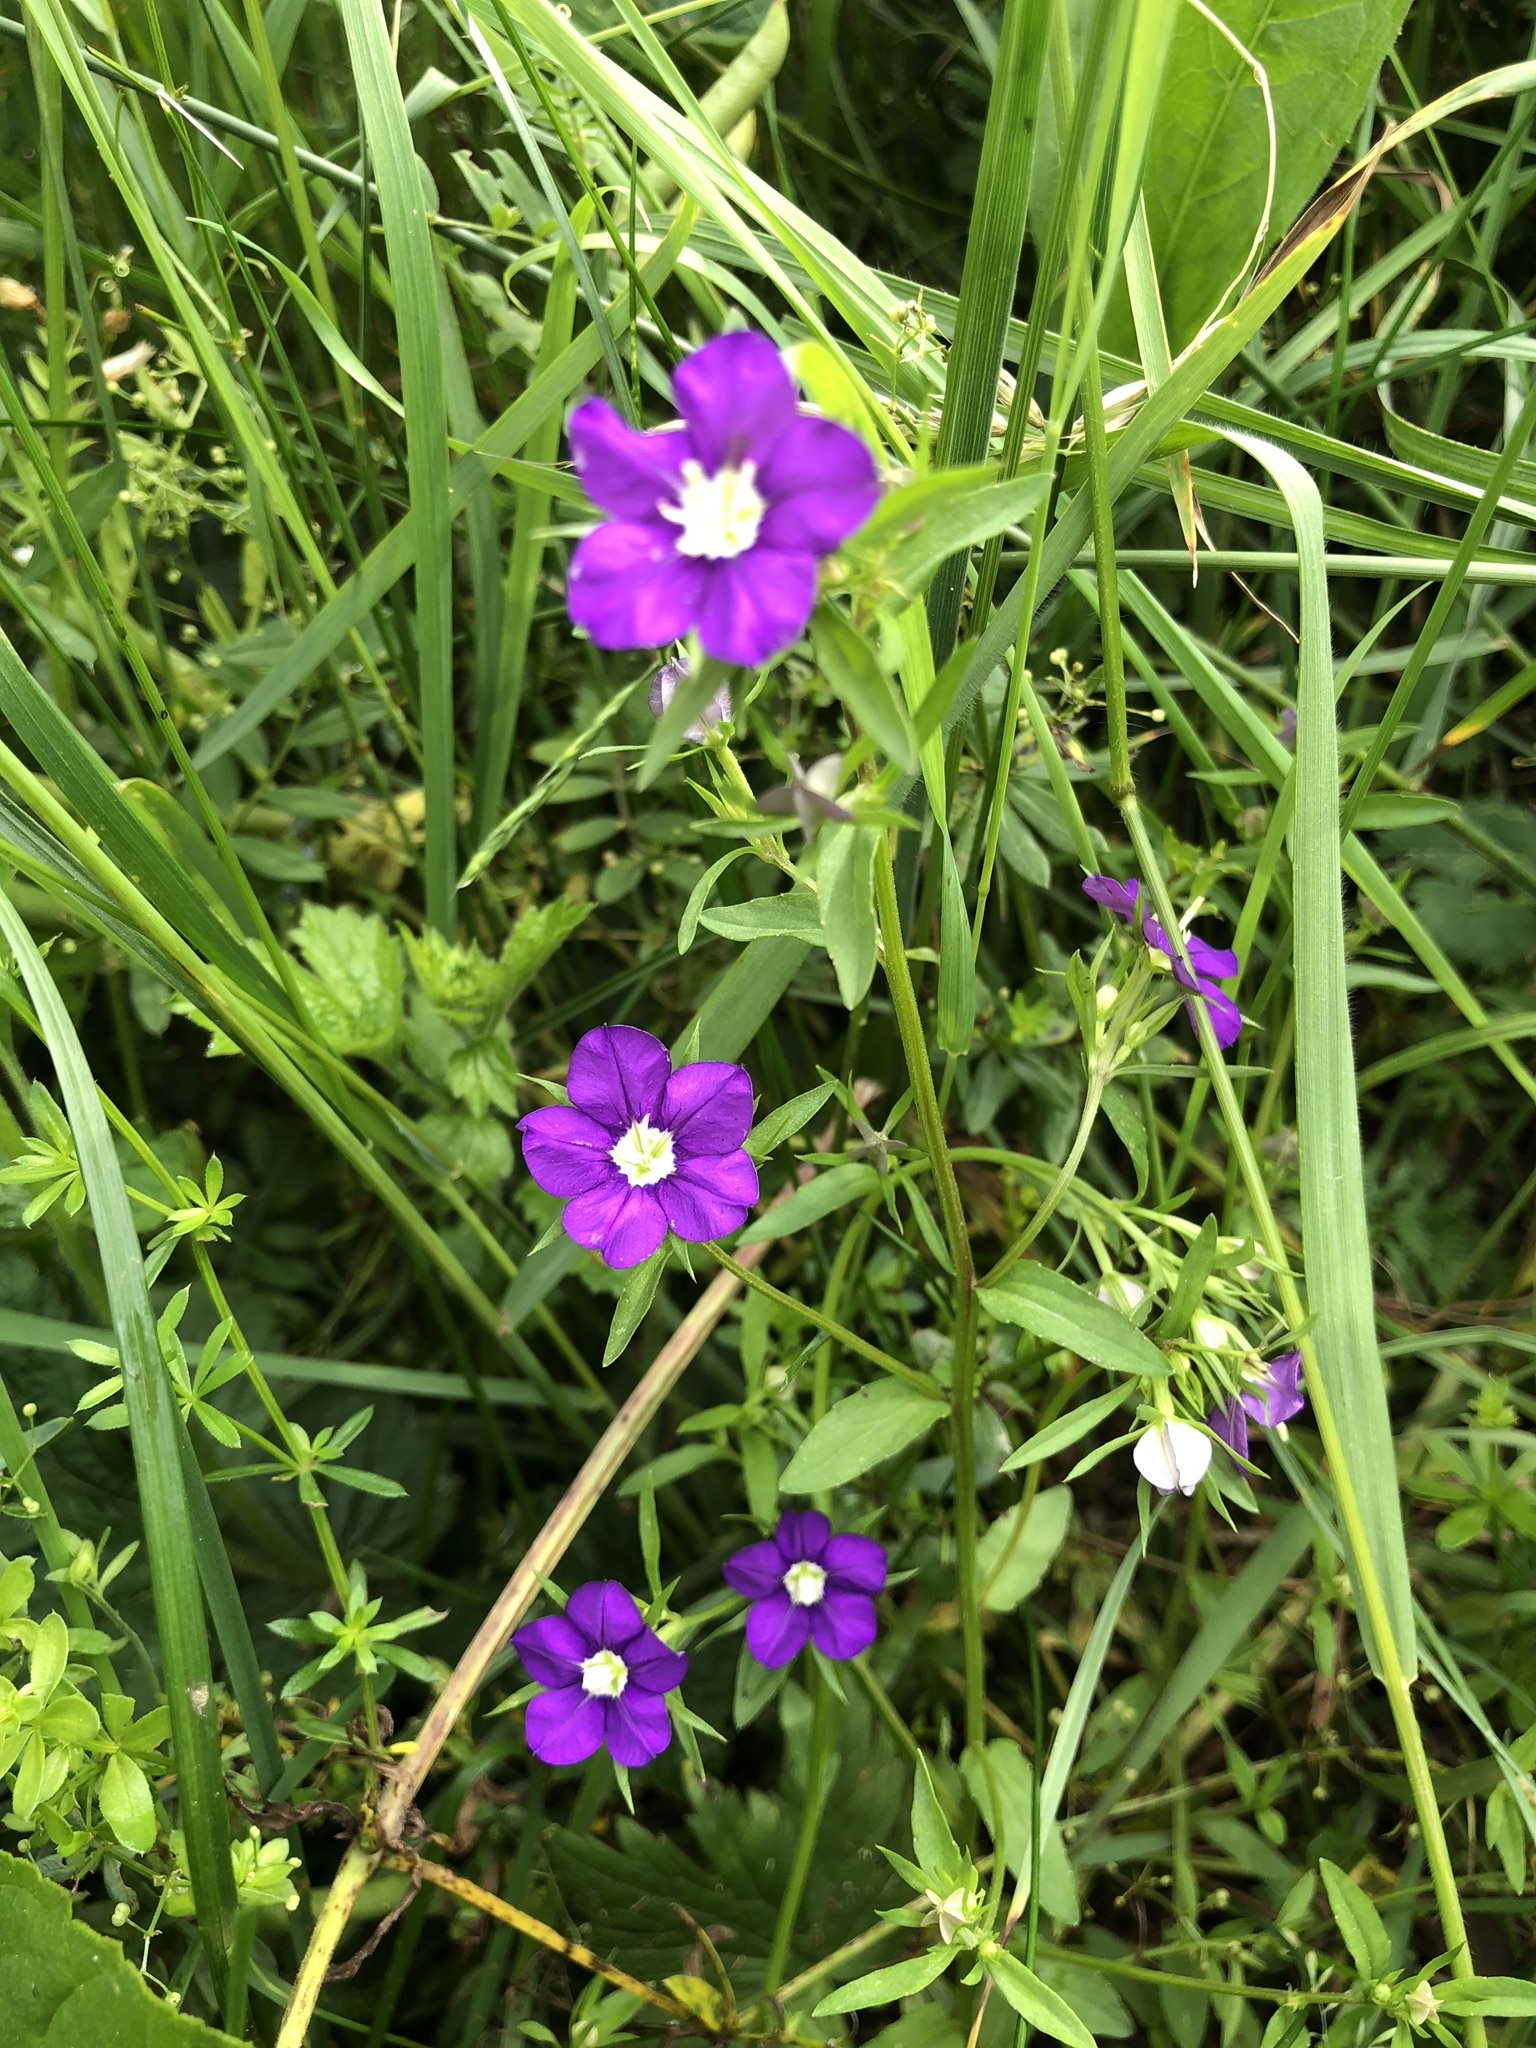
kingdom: Plantae
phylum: Tracheophyta
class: Magnoliopsida
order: Asterales
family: Campanulaceae
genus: Legousia
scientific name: Legousia speculum-veneris
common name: Large venus's-looking-glass
